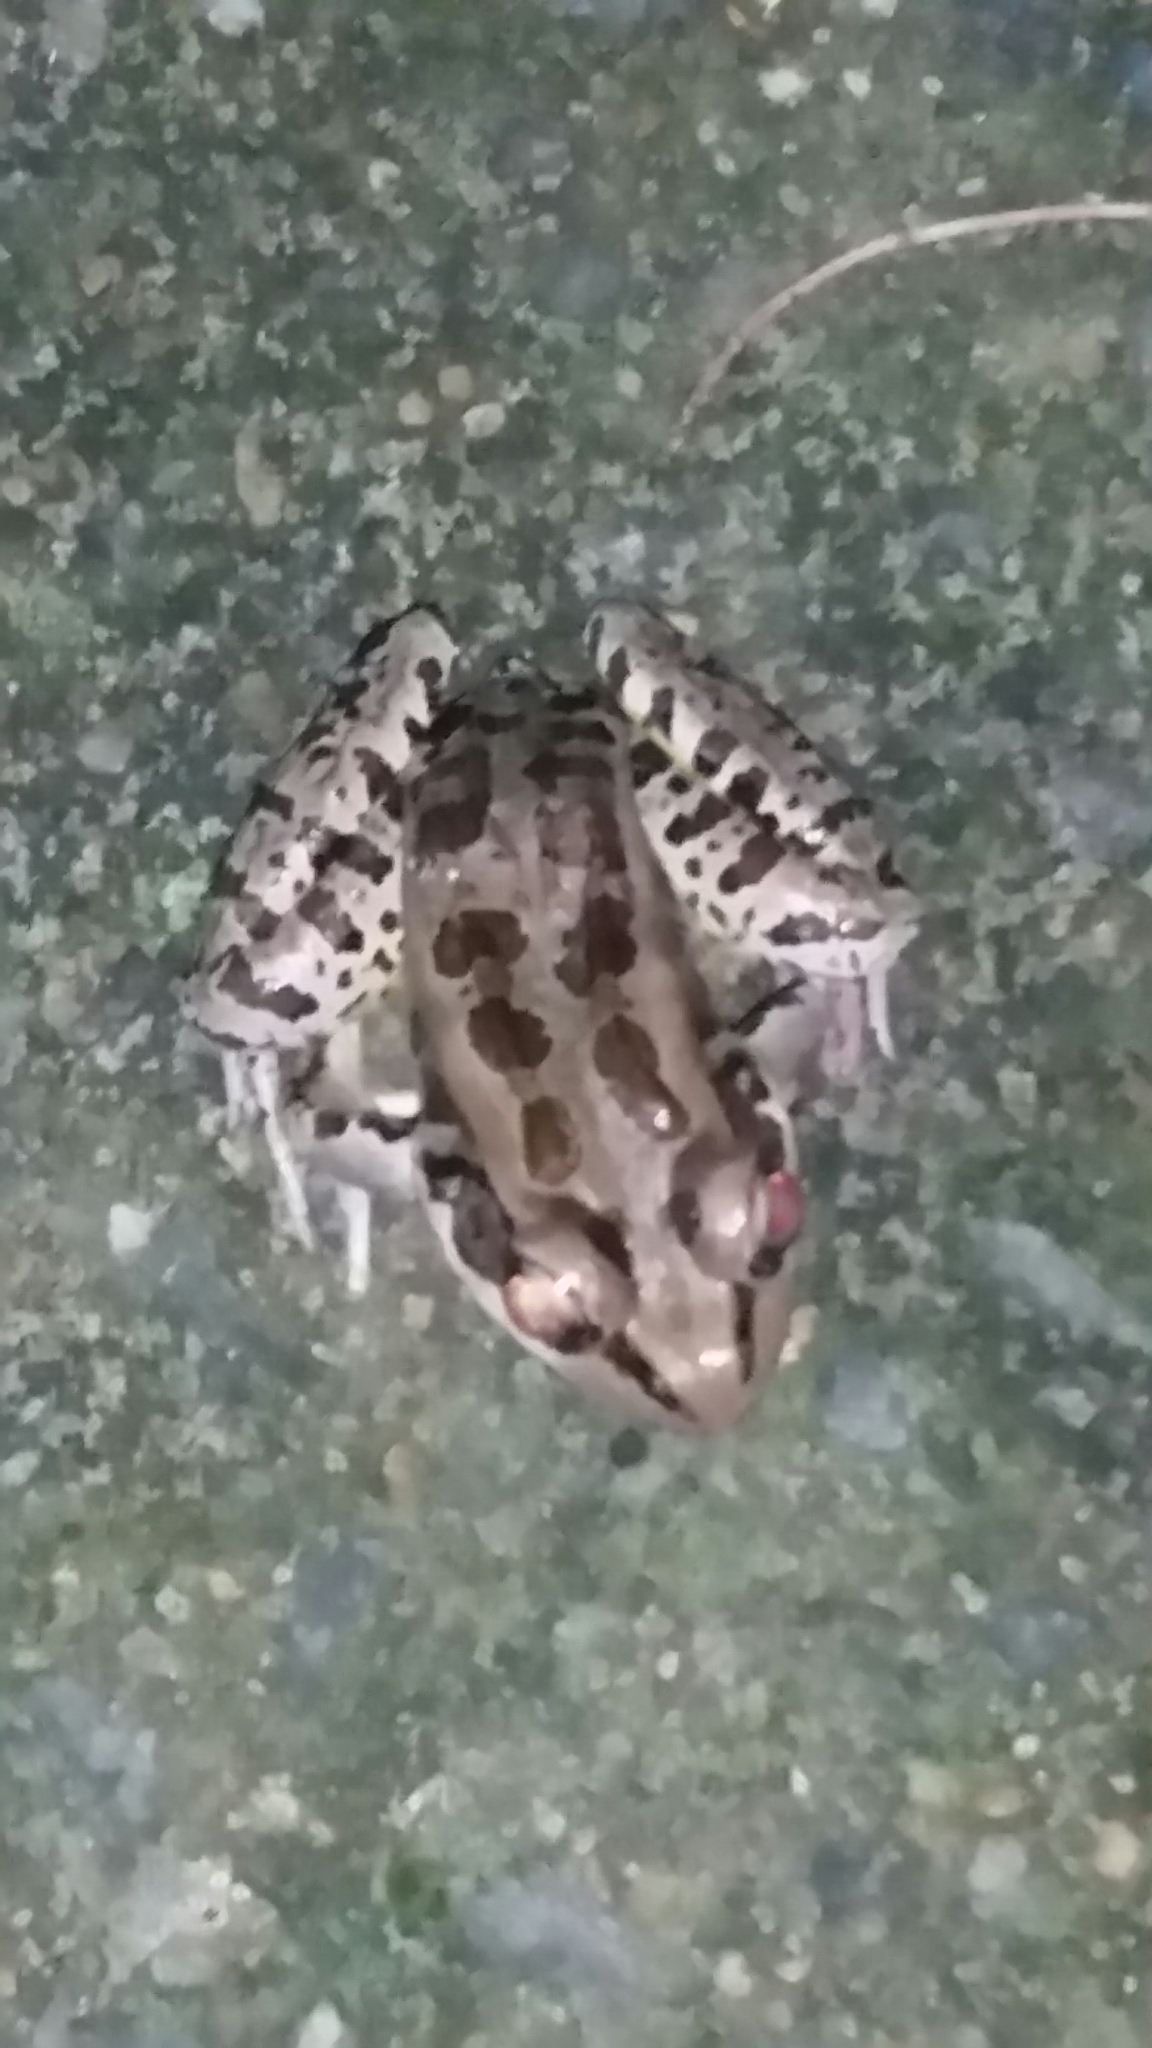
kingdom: Animalia
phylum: Chordata
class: Amphibia
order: Anura
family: Ranidae
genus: Lithobates
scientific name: Lithobates palustris
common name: Pickerel frog
